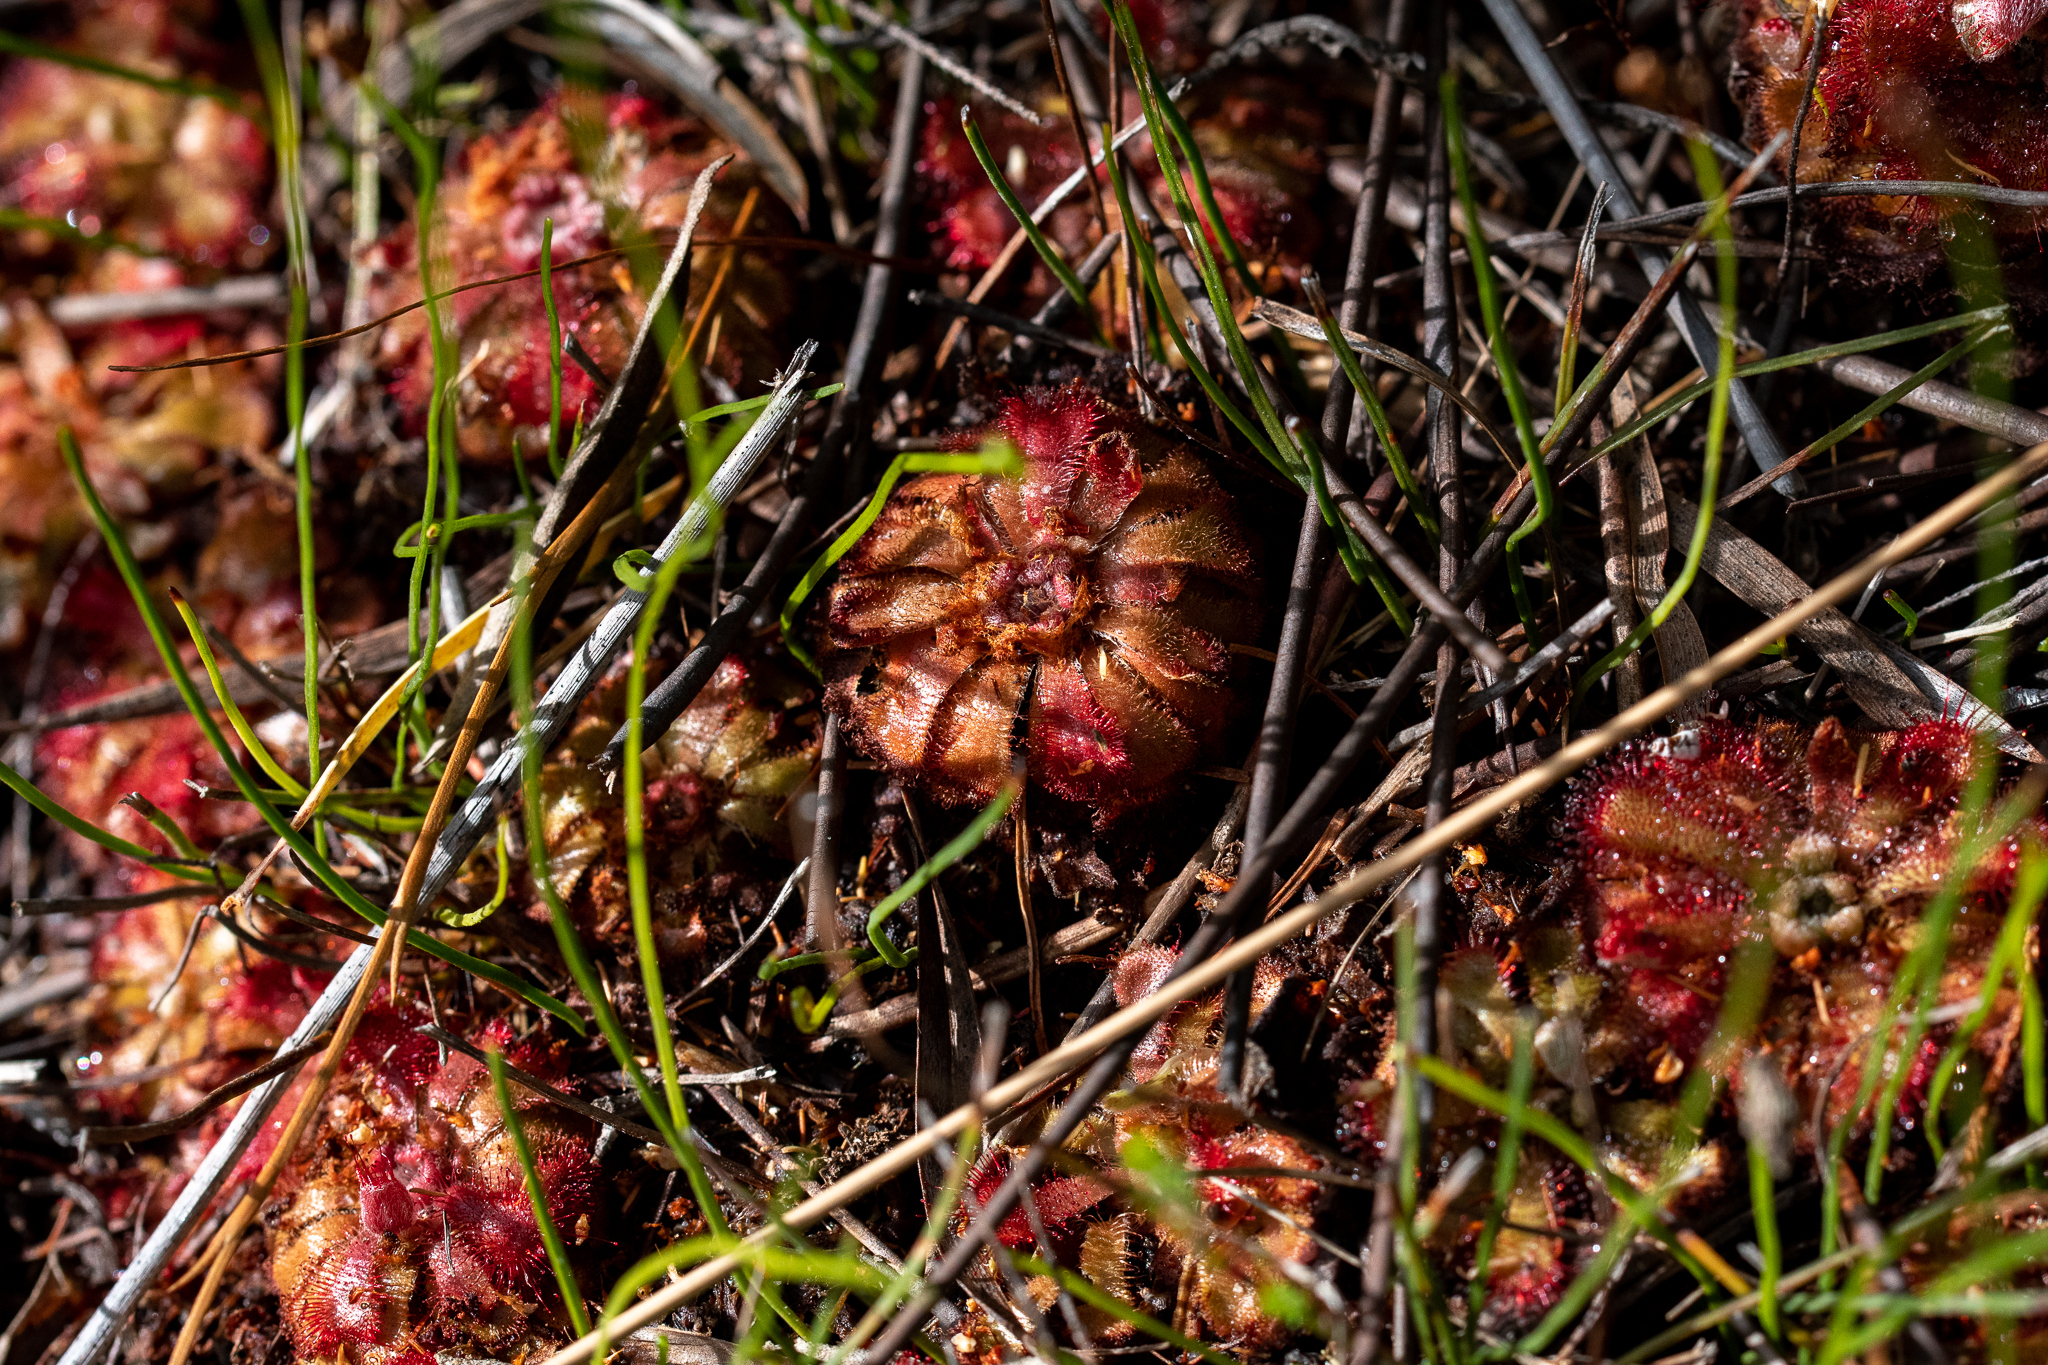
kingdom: Plantae
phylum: Tracheophyta
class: Magnoliopsida
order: Caryophyllales
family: Droseraceae
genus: Drosera
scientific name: Drosera aliciae
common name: Alice sundew
